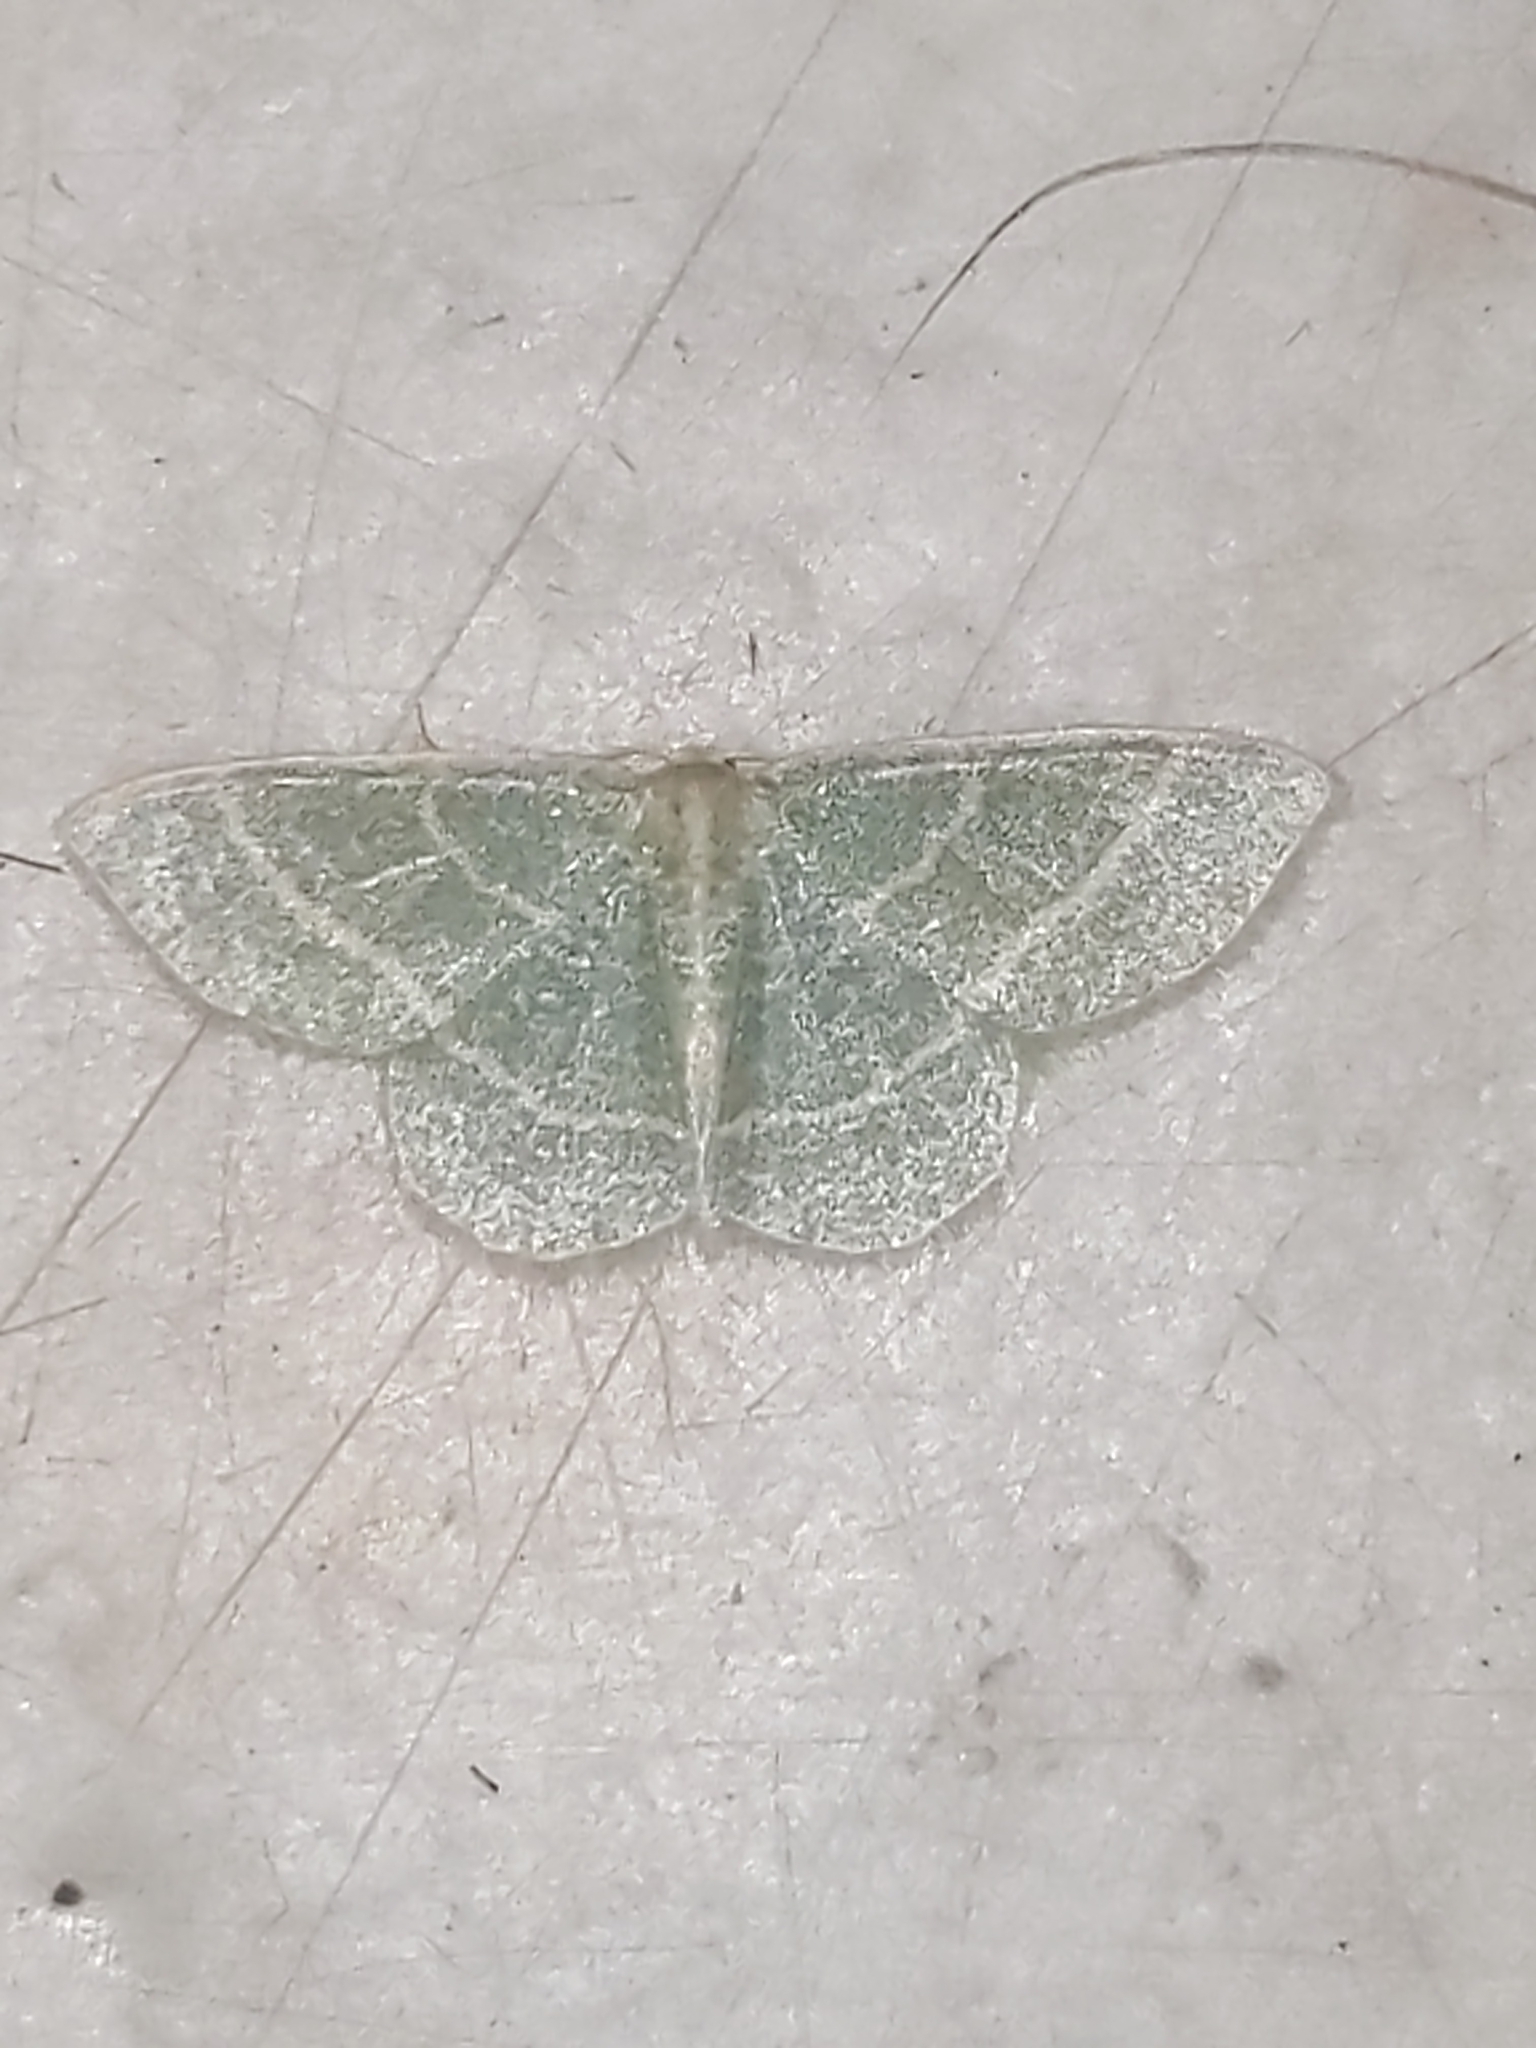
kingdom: Animalia
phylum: Arthropoda
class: Insecta
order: Lepidoptera
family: Geometridae
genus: Chlorochlamys
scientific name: Chlorochlamys chloroleucaria
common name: Blackberry looper
